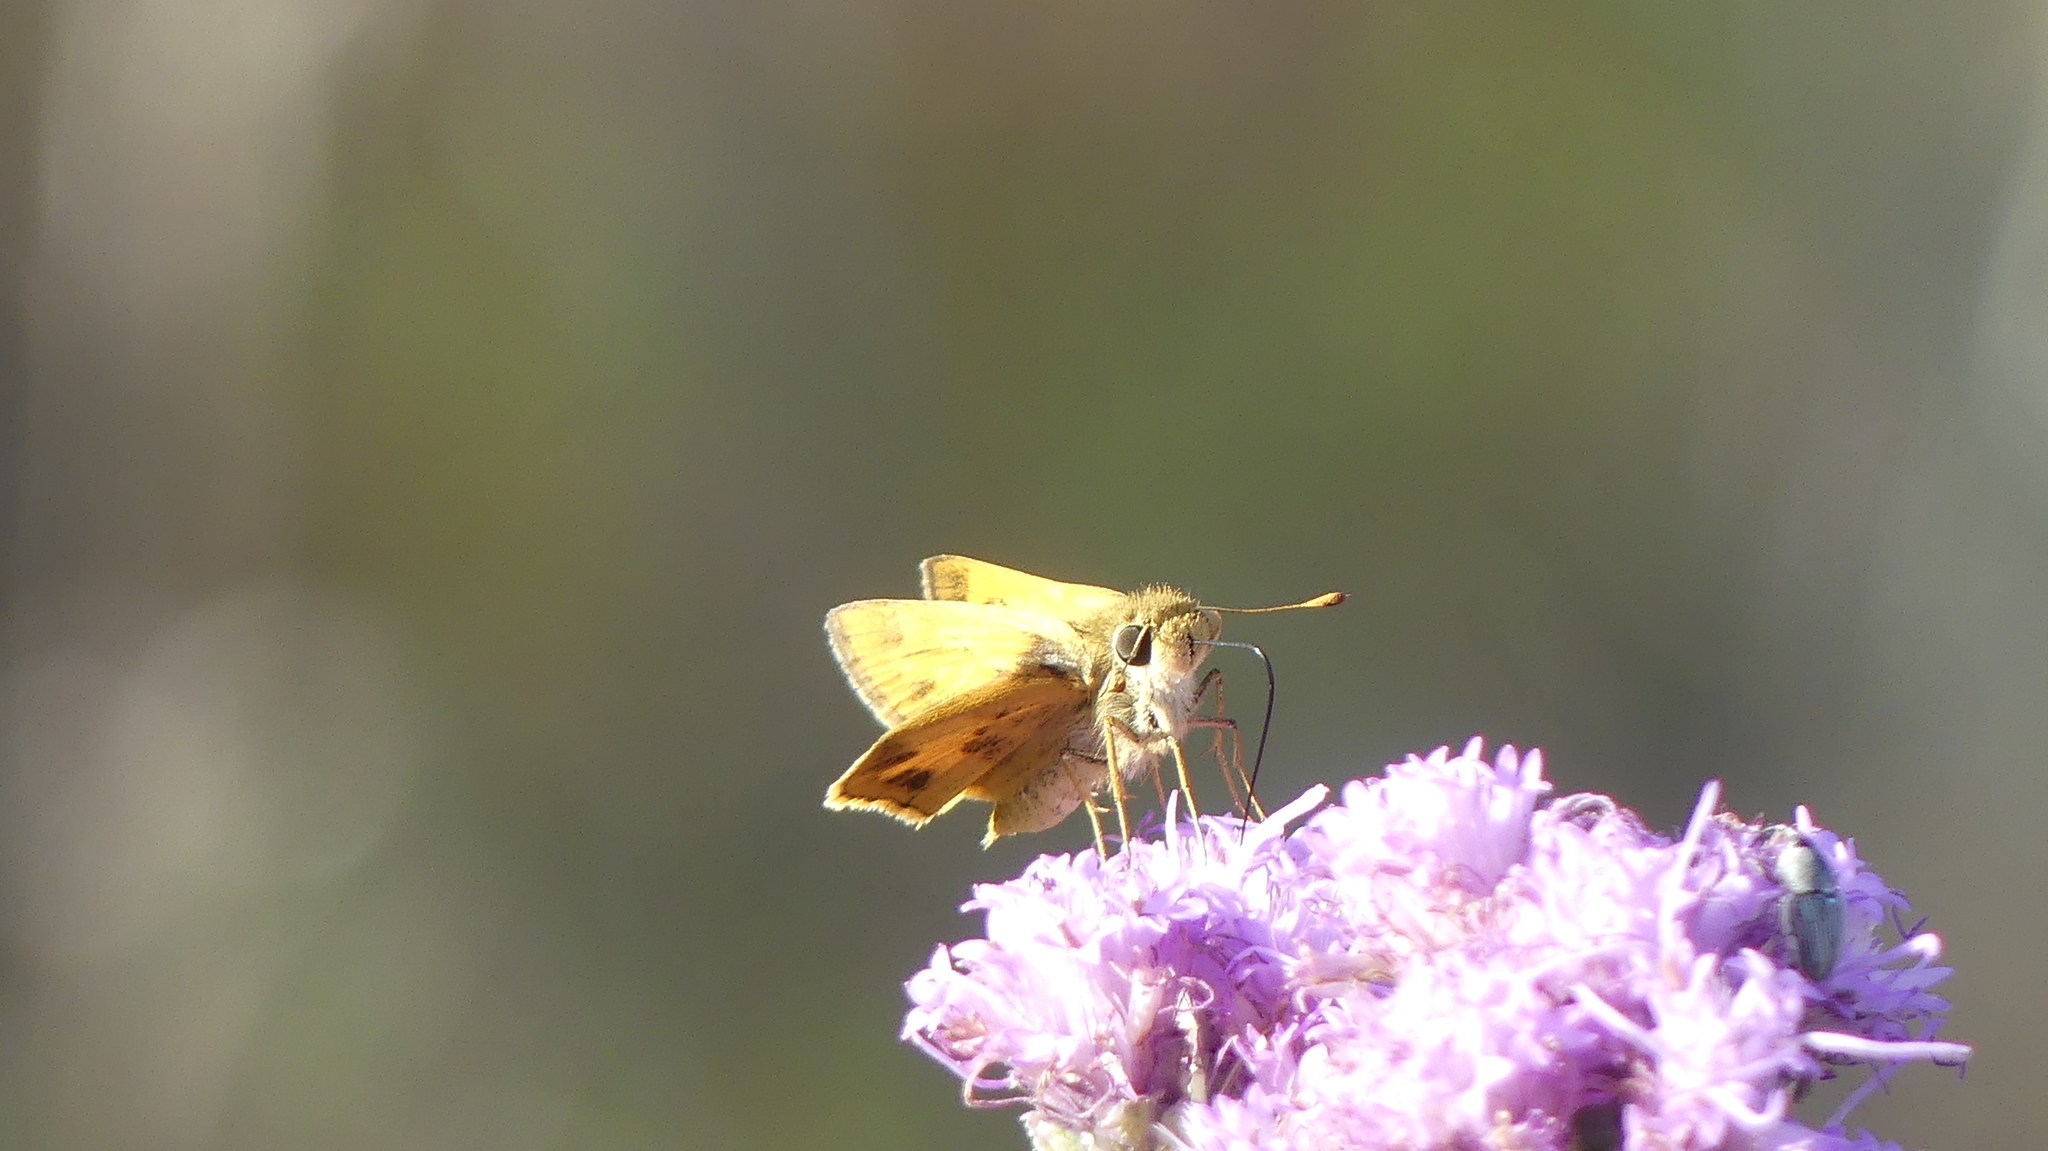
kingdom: Animalia
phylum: Arthropoda
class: Insecta
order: Lepidoptera
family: Hesperiidae
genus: Polites
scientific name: Polites vibex
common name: Whirlabout
